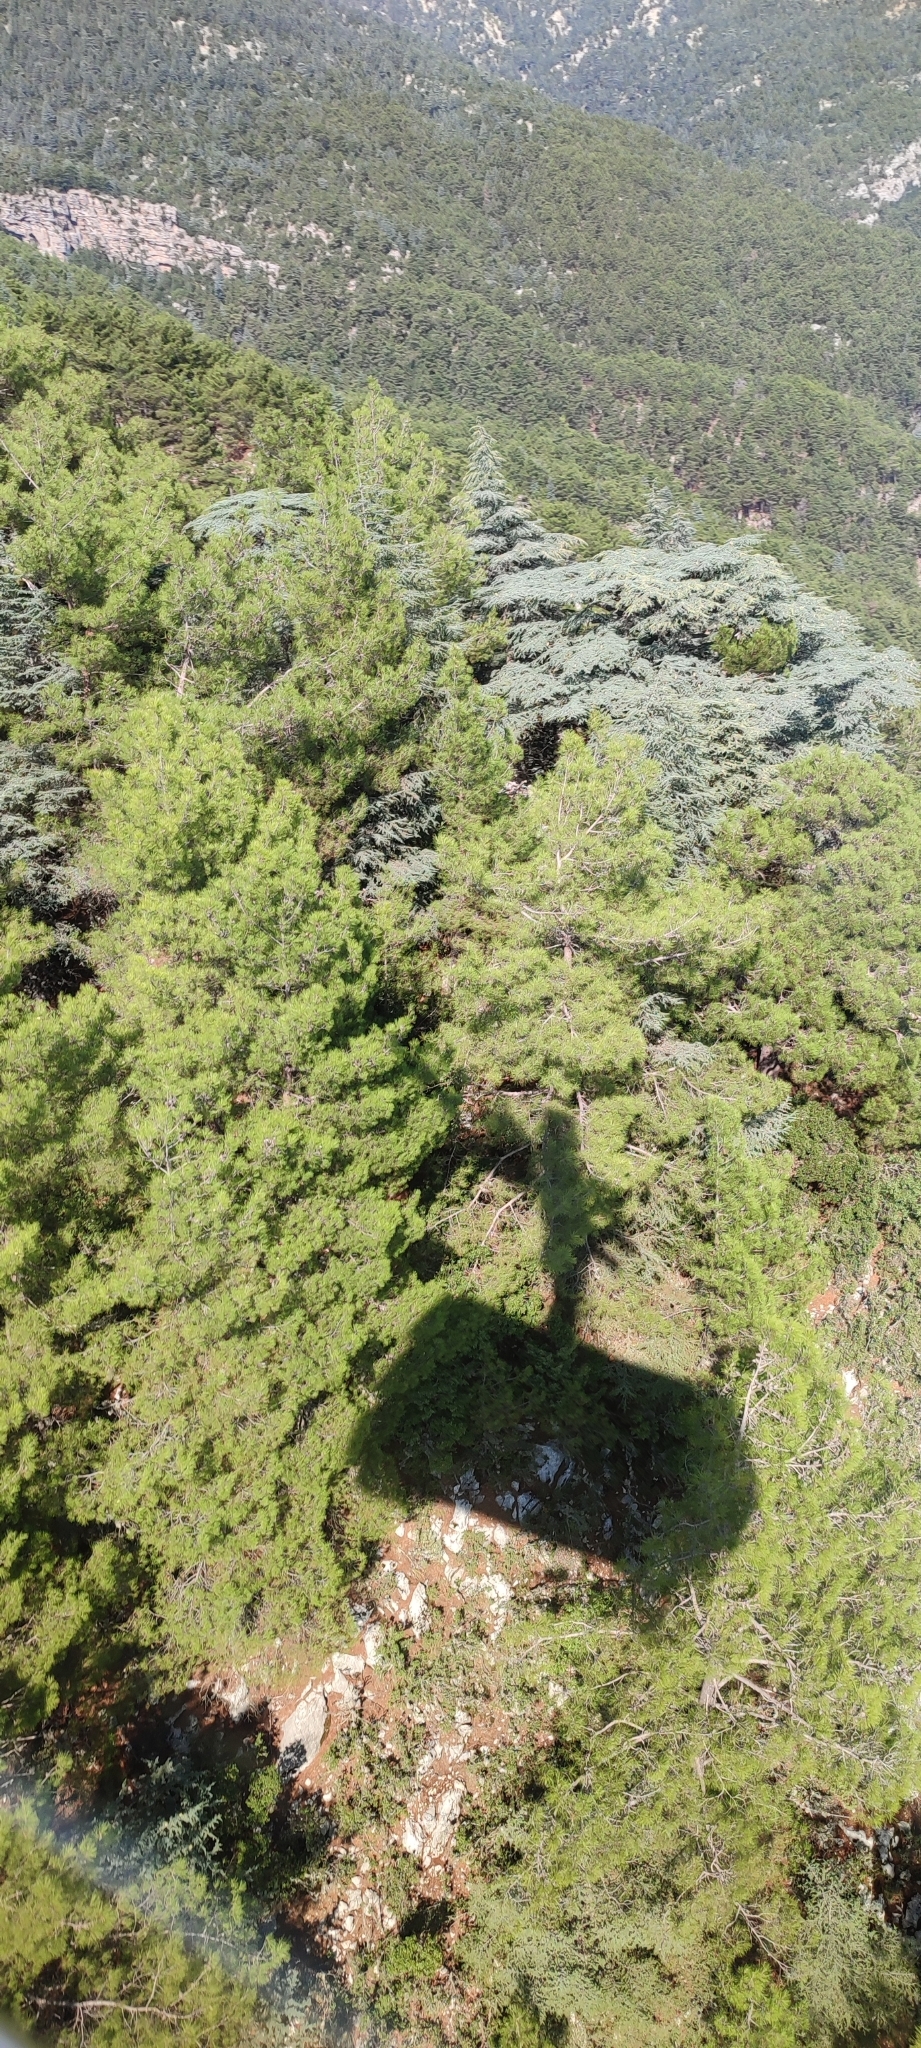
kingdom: Plantae
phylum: Tracheophyta
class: Pinopsida
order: Pinales
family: Pinaceae
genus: Pinus
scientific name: Pinus brutia
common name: Turkish pine
